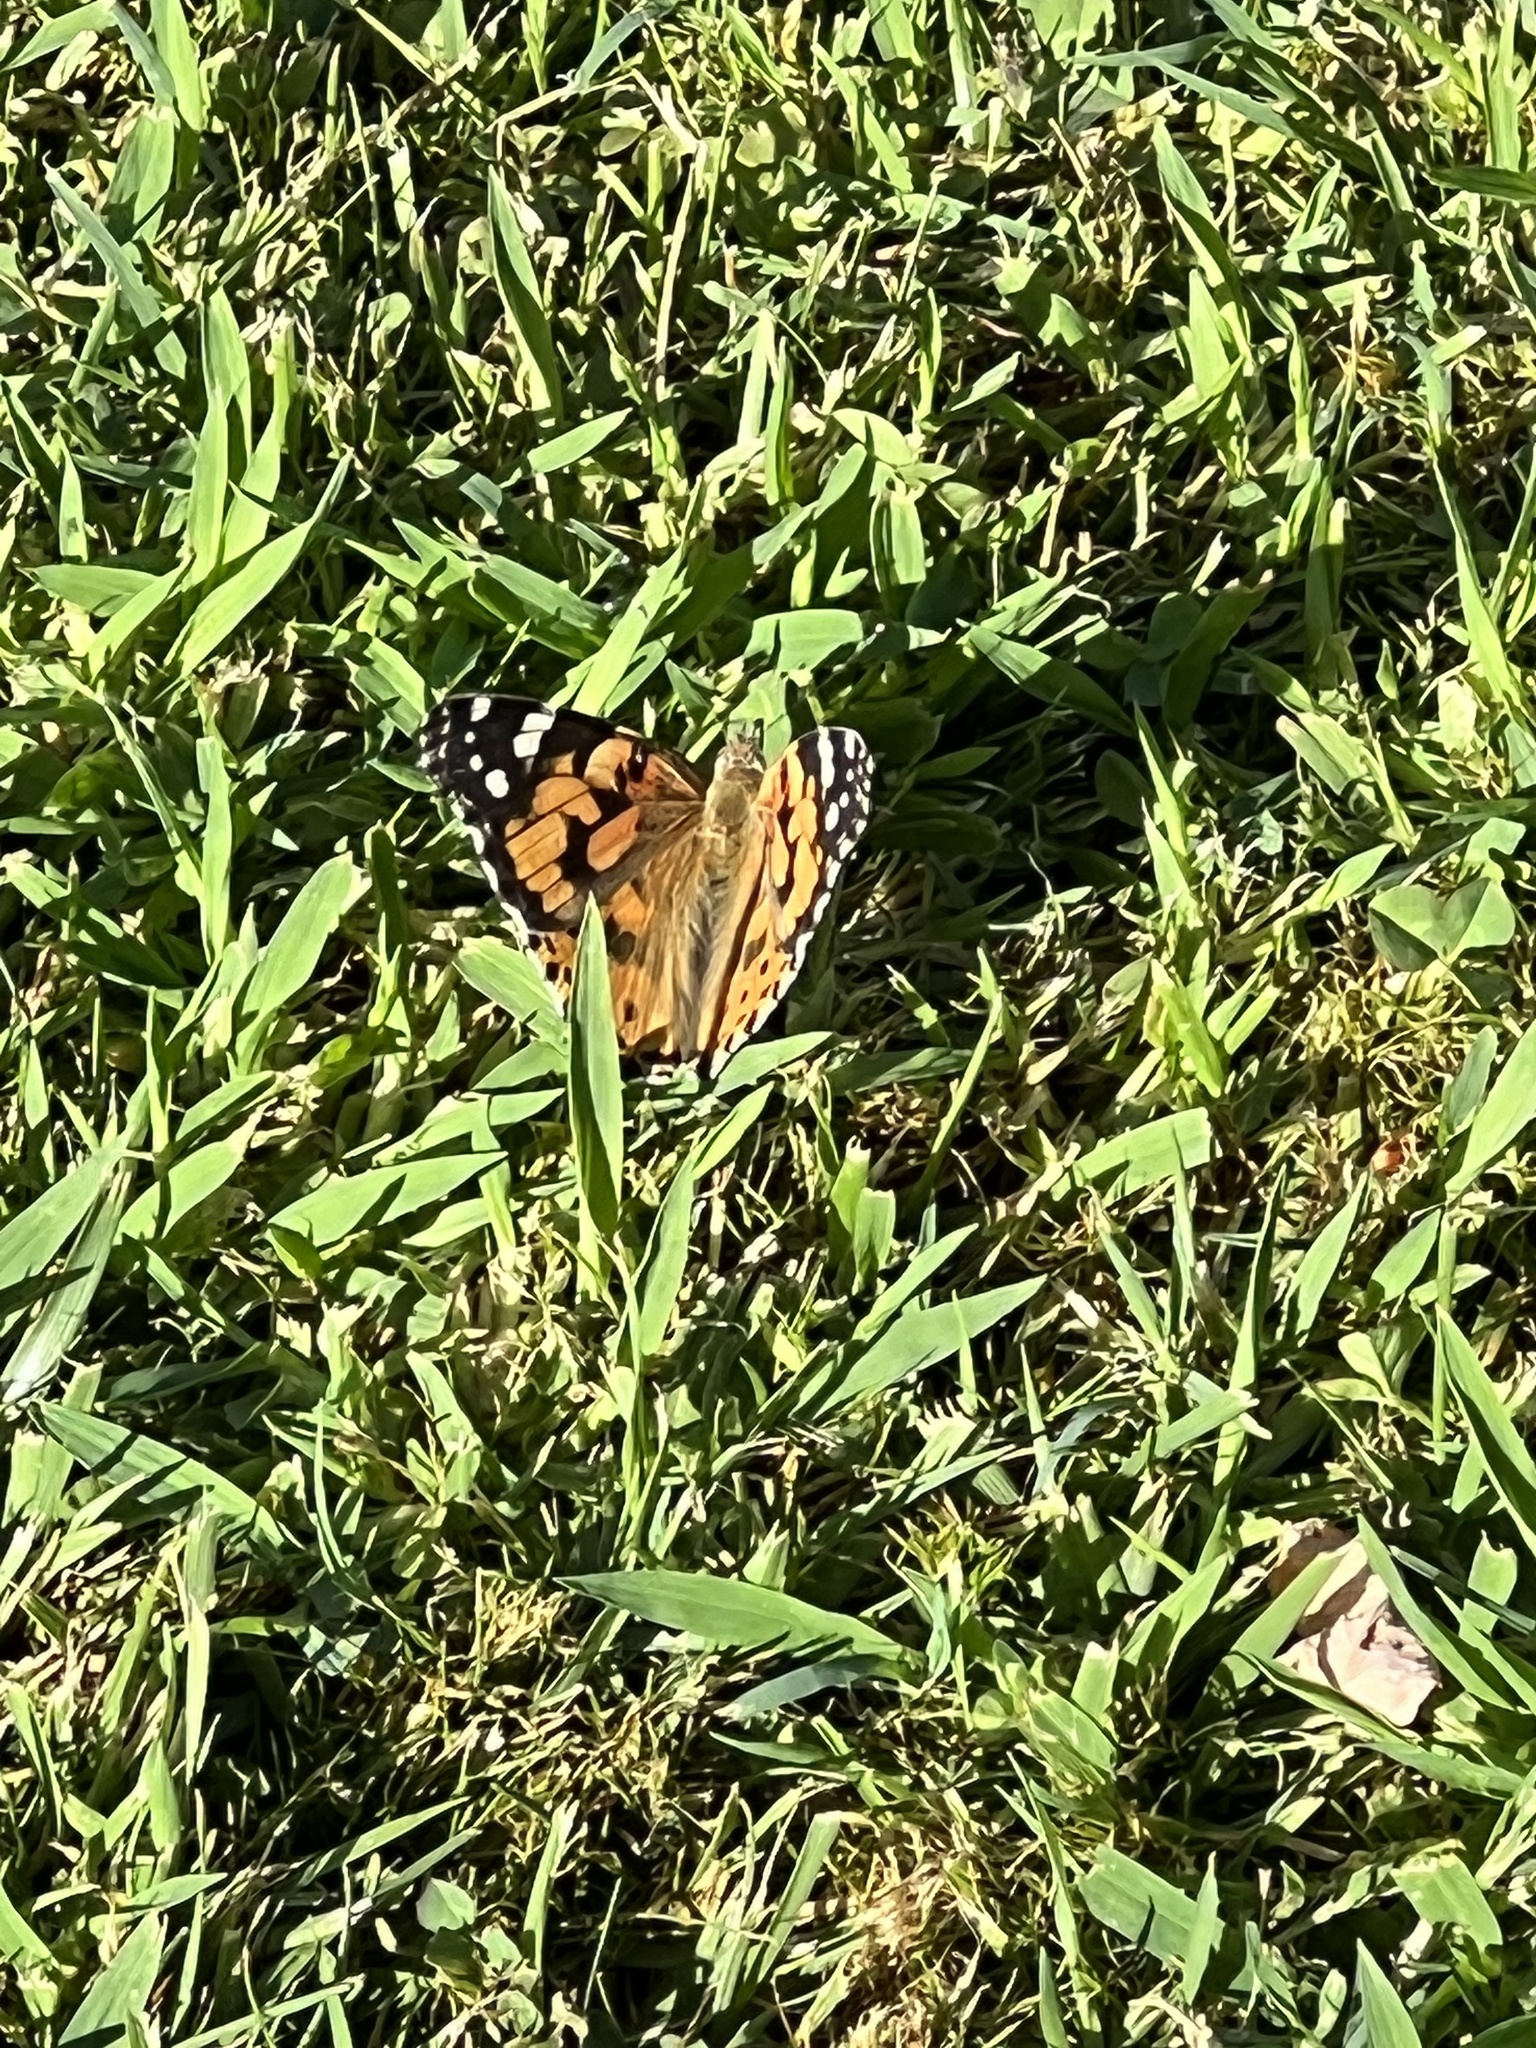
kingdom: Animalia
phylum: Arthropoda
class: Insecta
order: Lepidoptera
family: Nymphalidae
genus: Vanessa
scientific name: Vanessa cardui
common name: Painted lady
